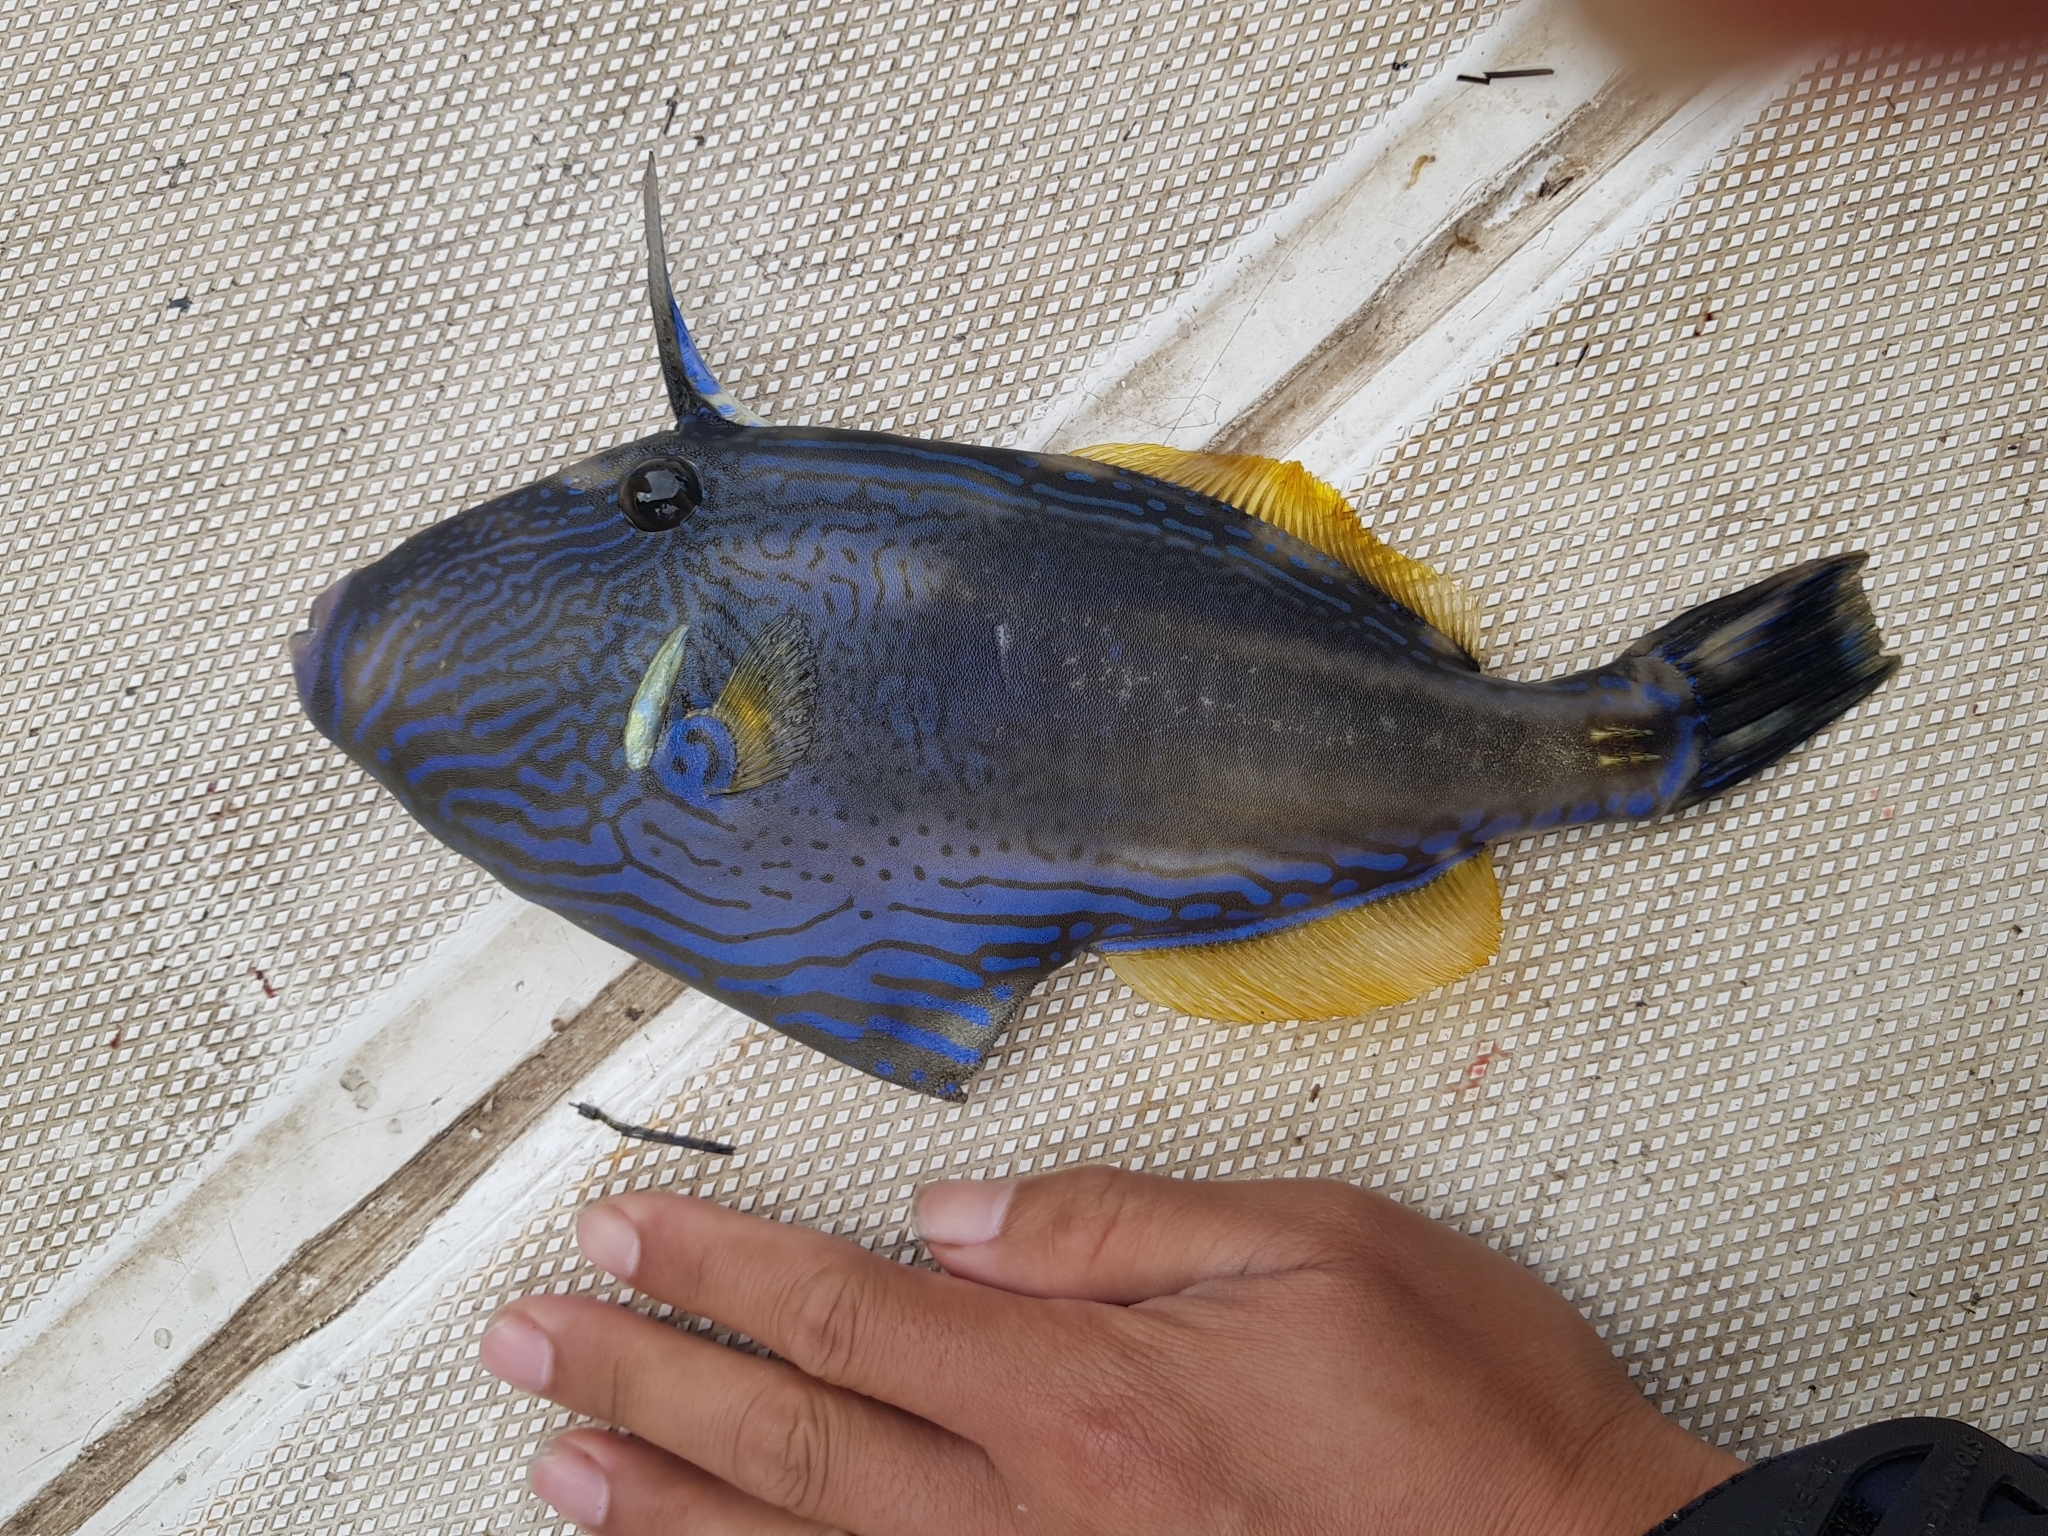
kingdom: Animalia
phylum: Chordata
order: Tetraodontiformes
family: Monacanthidae
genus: Meuschenia
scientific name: Meuschenia freycineti
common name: Freycinet's leatherjacket
